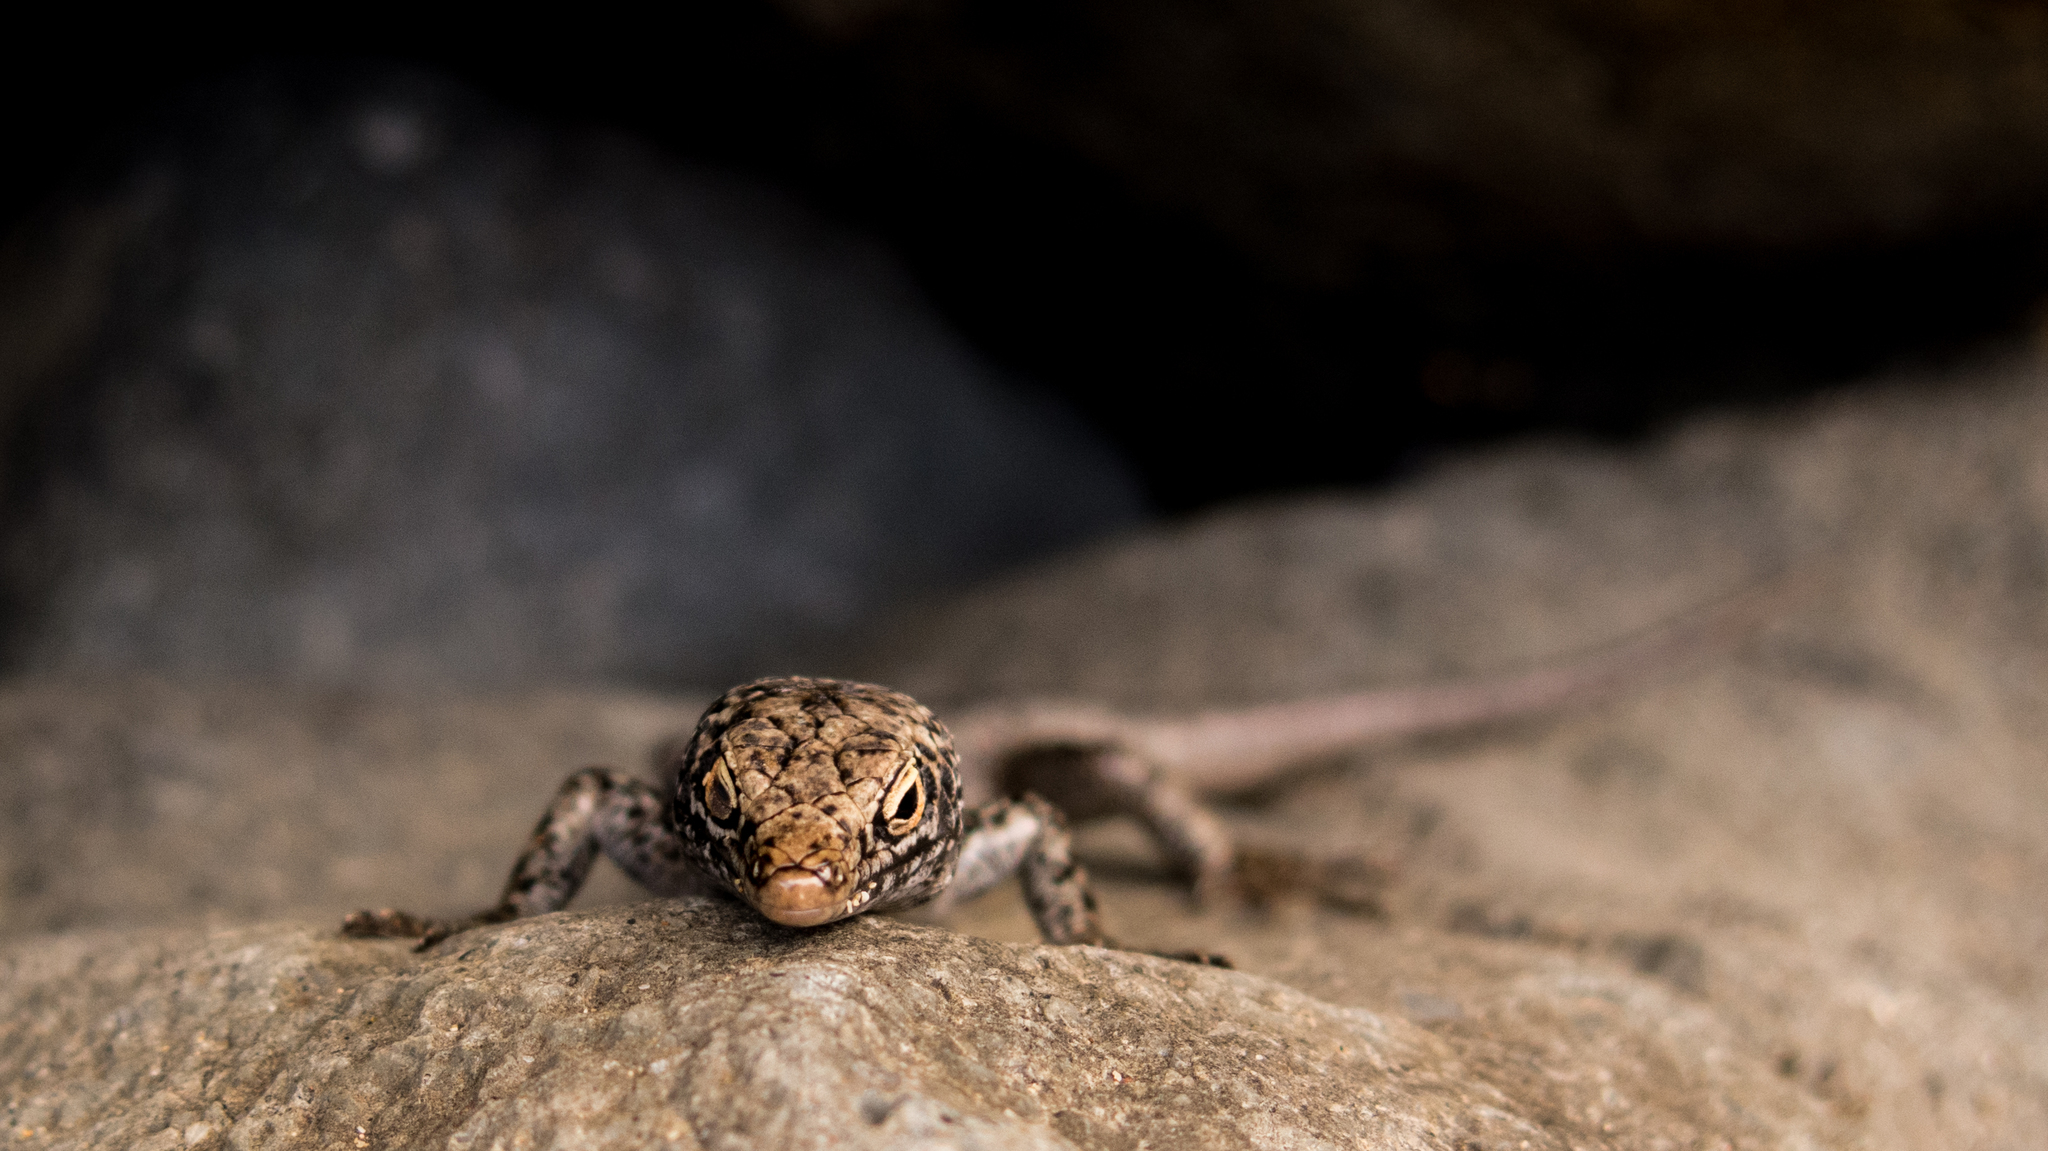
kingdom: Animalia
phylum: Chordata
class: Squamata
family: Scincidae
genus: Trachylepis
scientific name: Trachylepis atlantica
